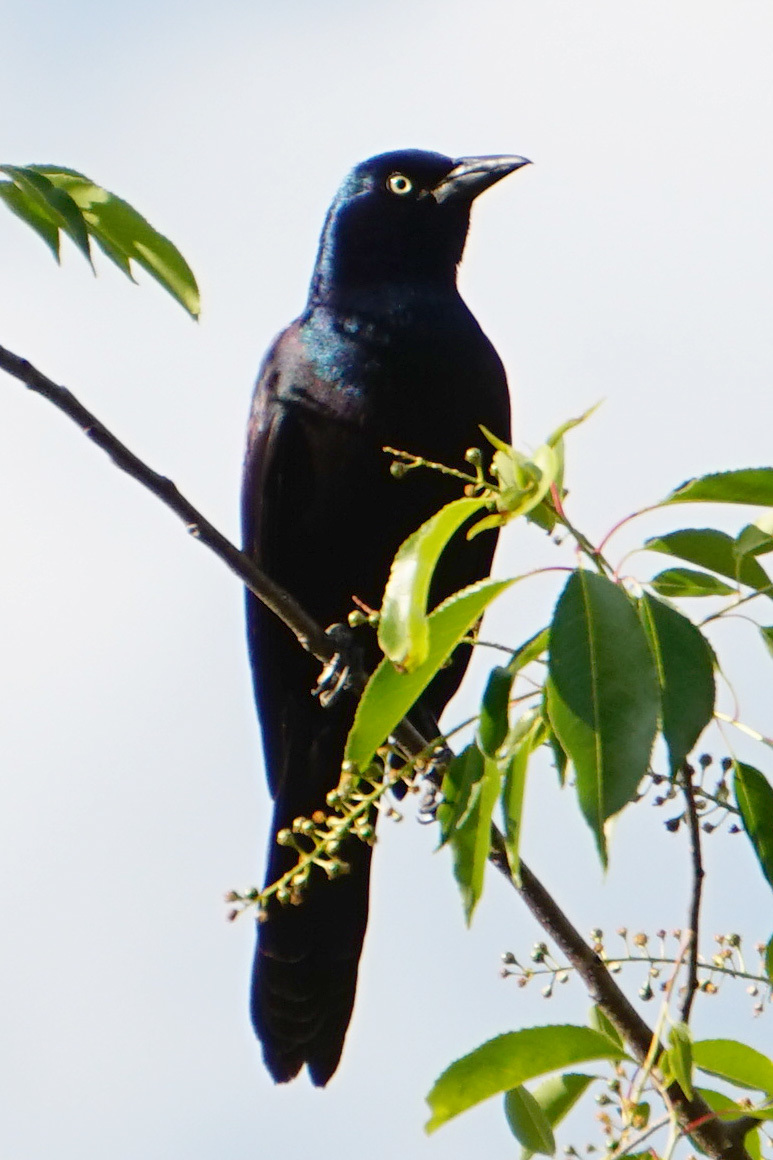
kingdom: Animalia
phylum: Chordata
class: Aves
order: Passeriformes
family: Icteridae
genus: Quiscalus
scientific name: Quiscalus quiscula
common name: Common grackle
